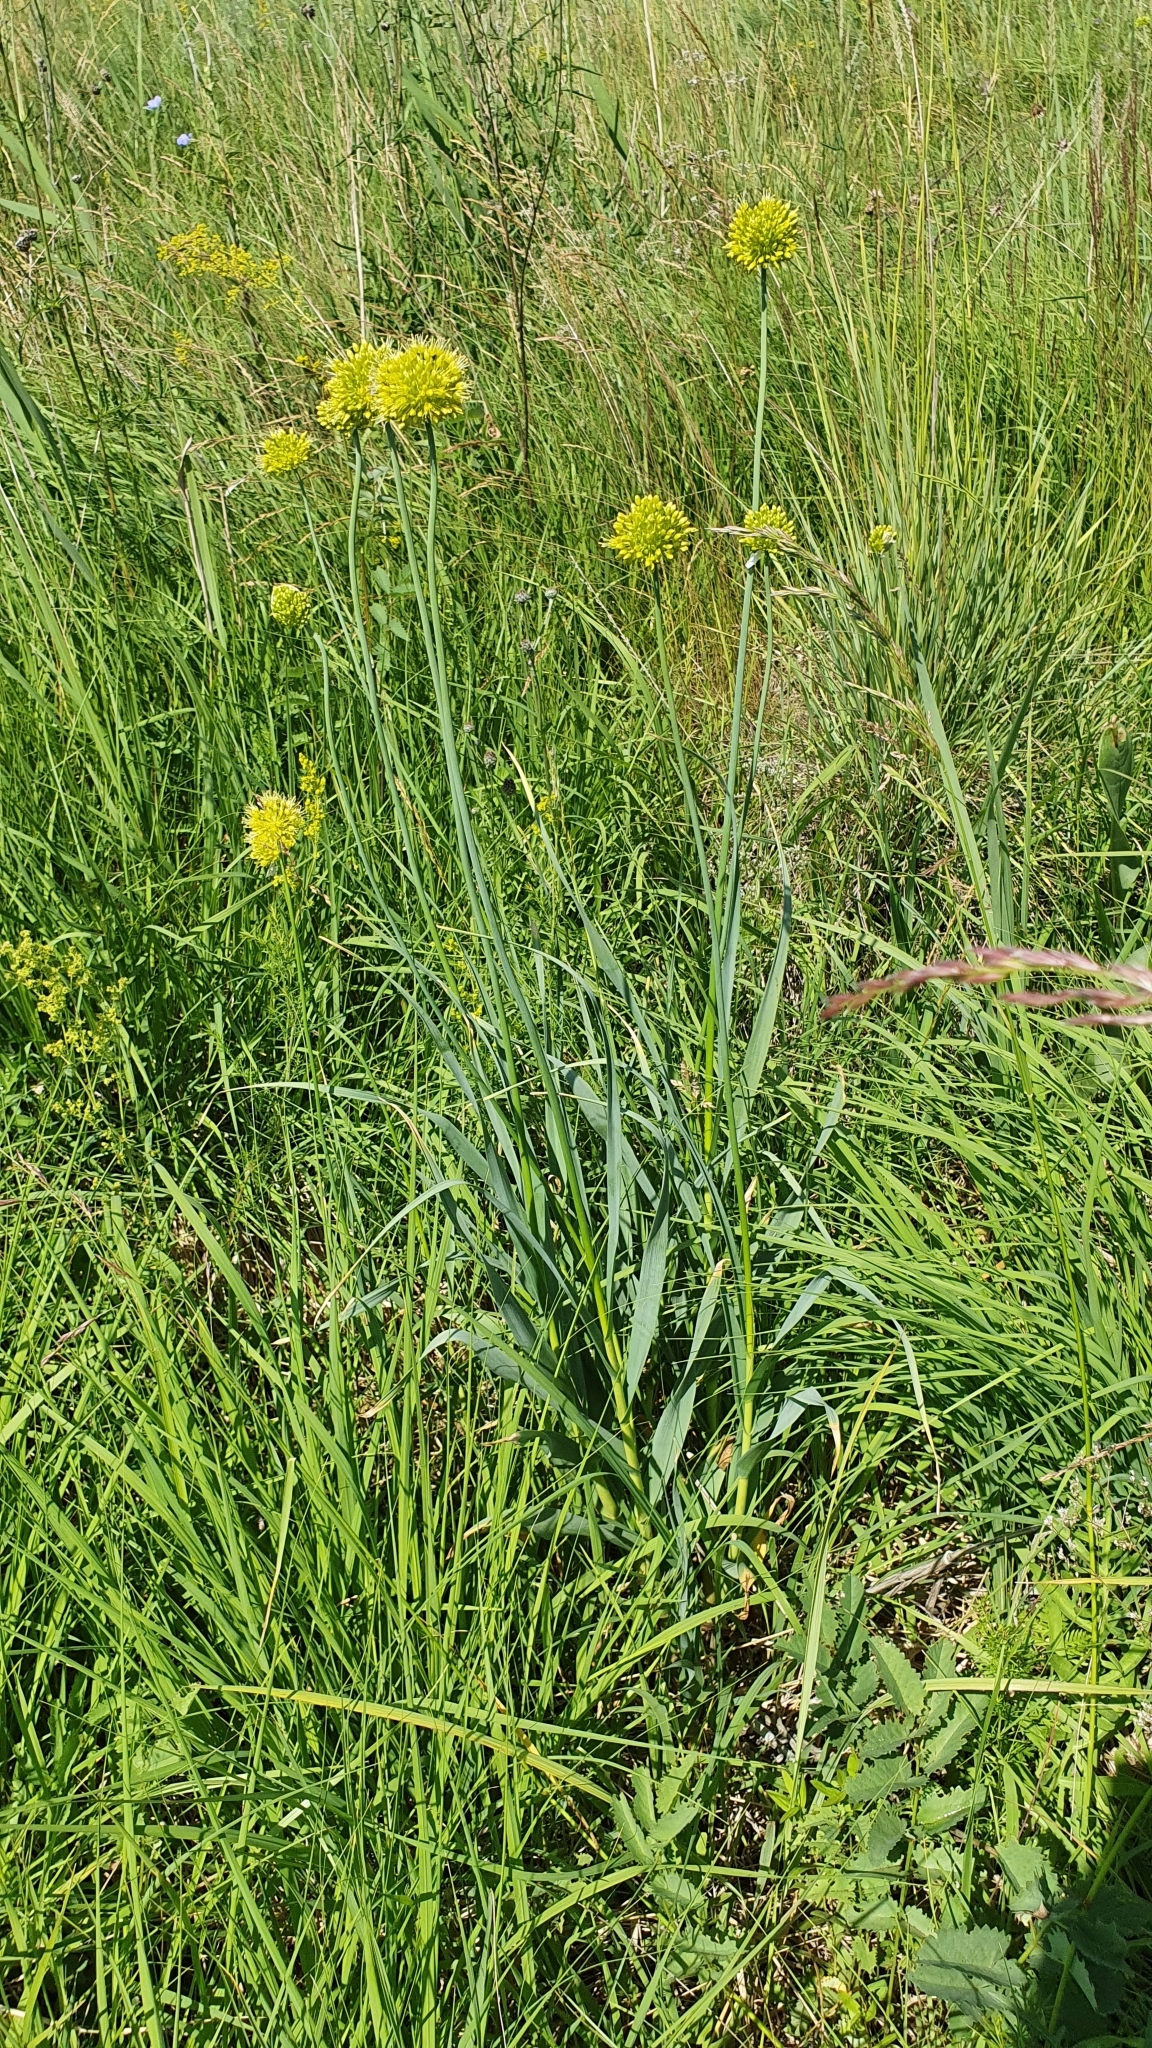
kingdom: Plantae
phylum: Tracheophyta
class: Liliopsida
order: Asparagales
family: Amaryllidaceae
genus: Allium
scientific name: Allium obliquum
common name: Oblique onion
